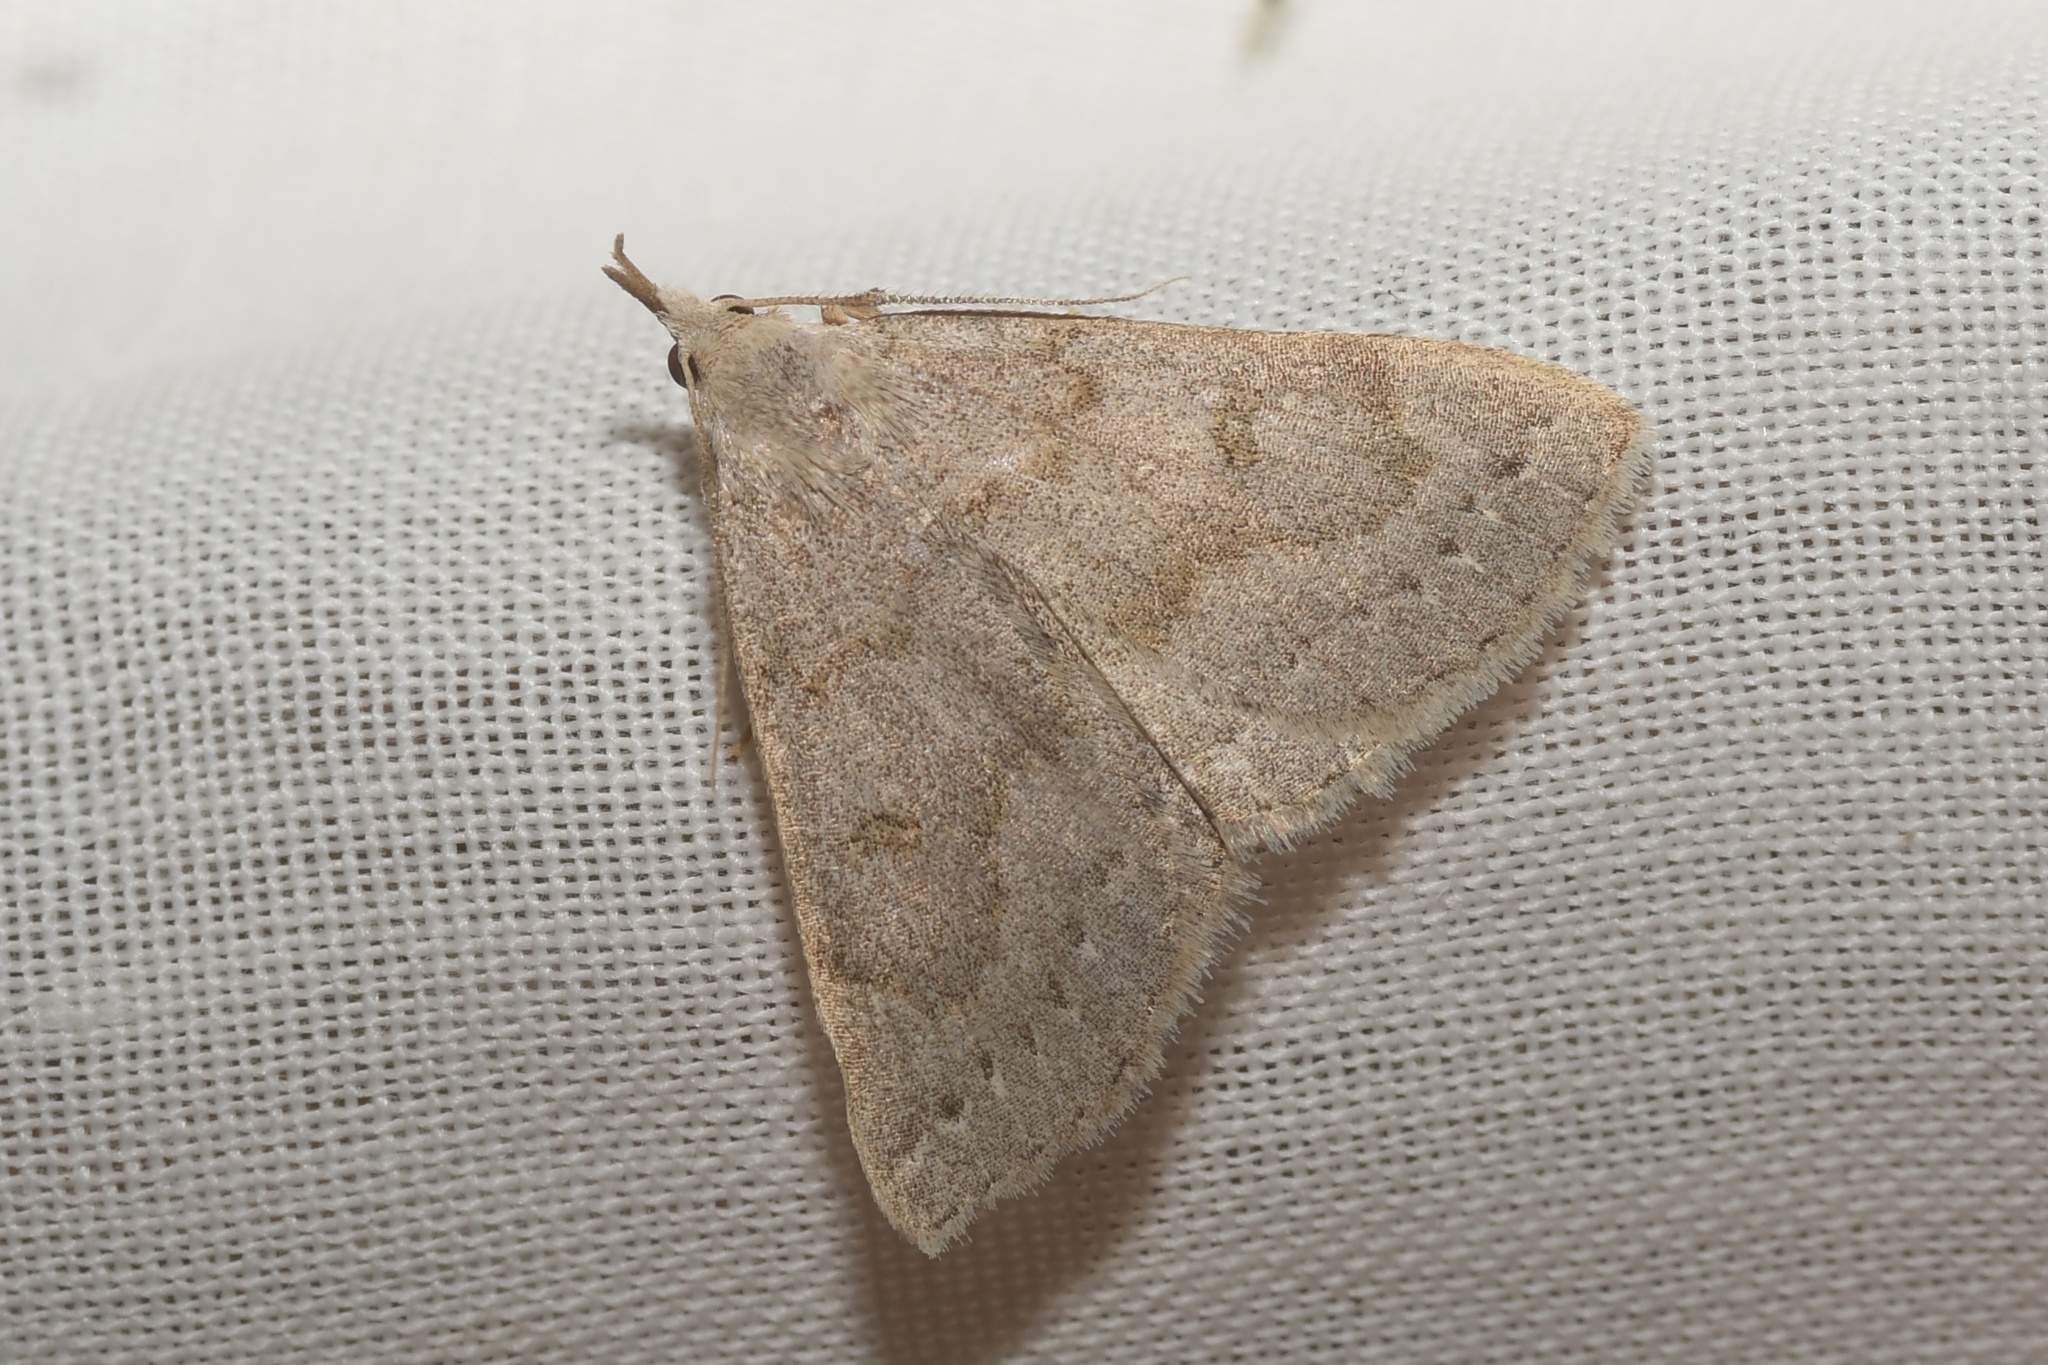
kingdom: Animalia
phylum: Arthropoda
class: Insecta
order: Lepidoptera
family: Erebidae
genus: Macrochilo
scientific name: Macrochilo morbidalis
